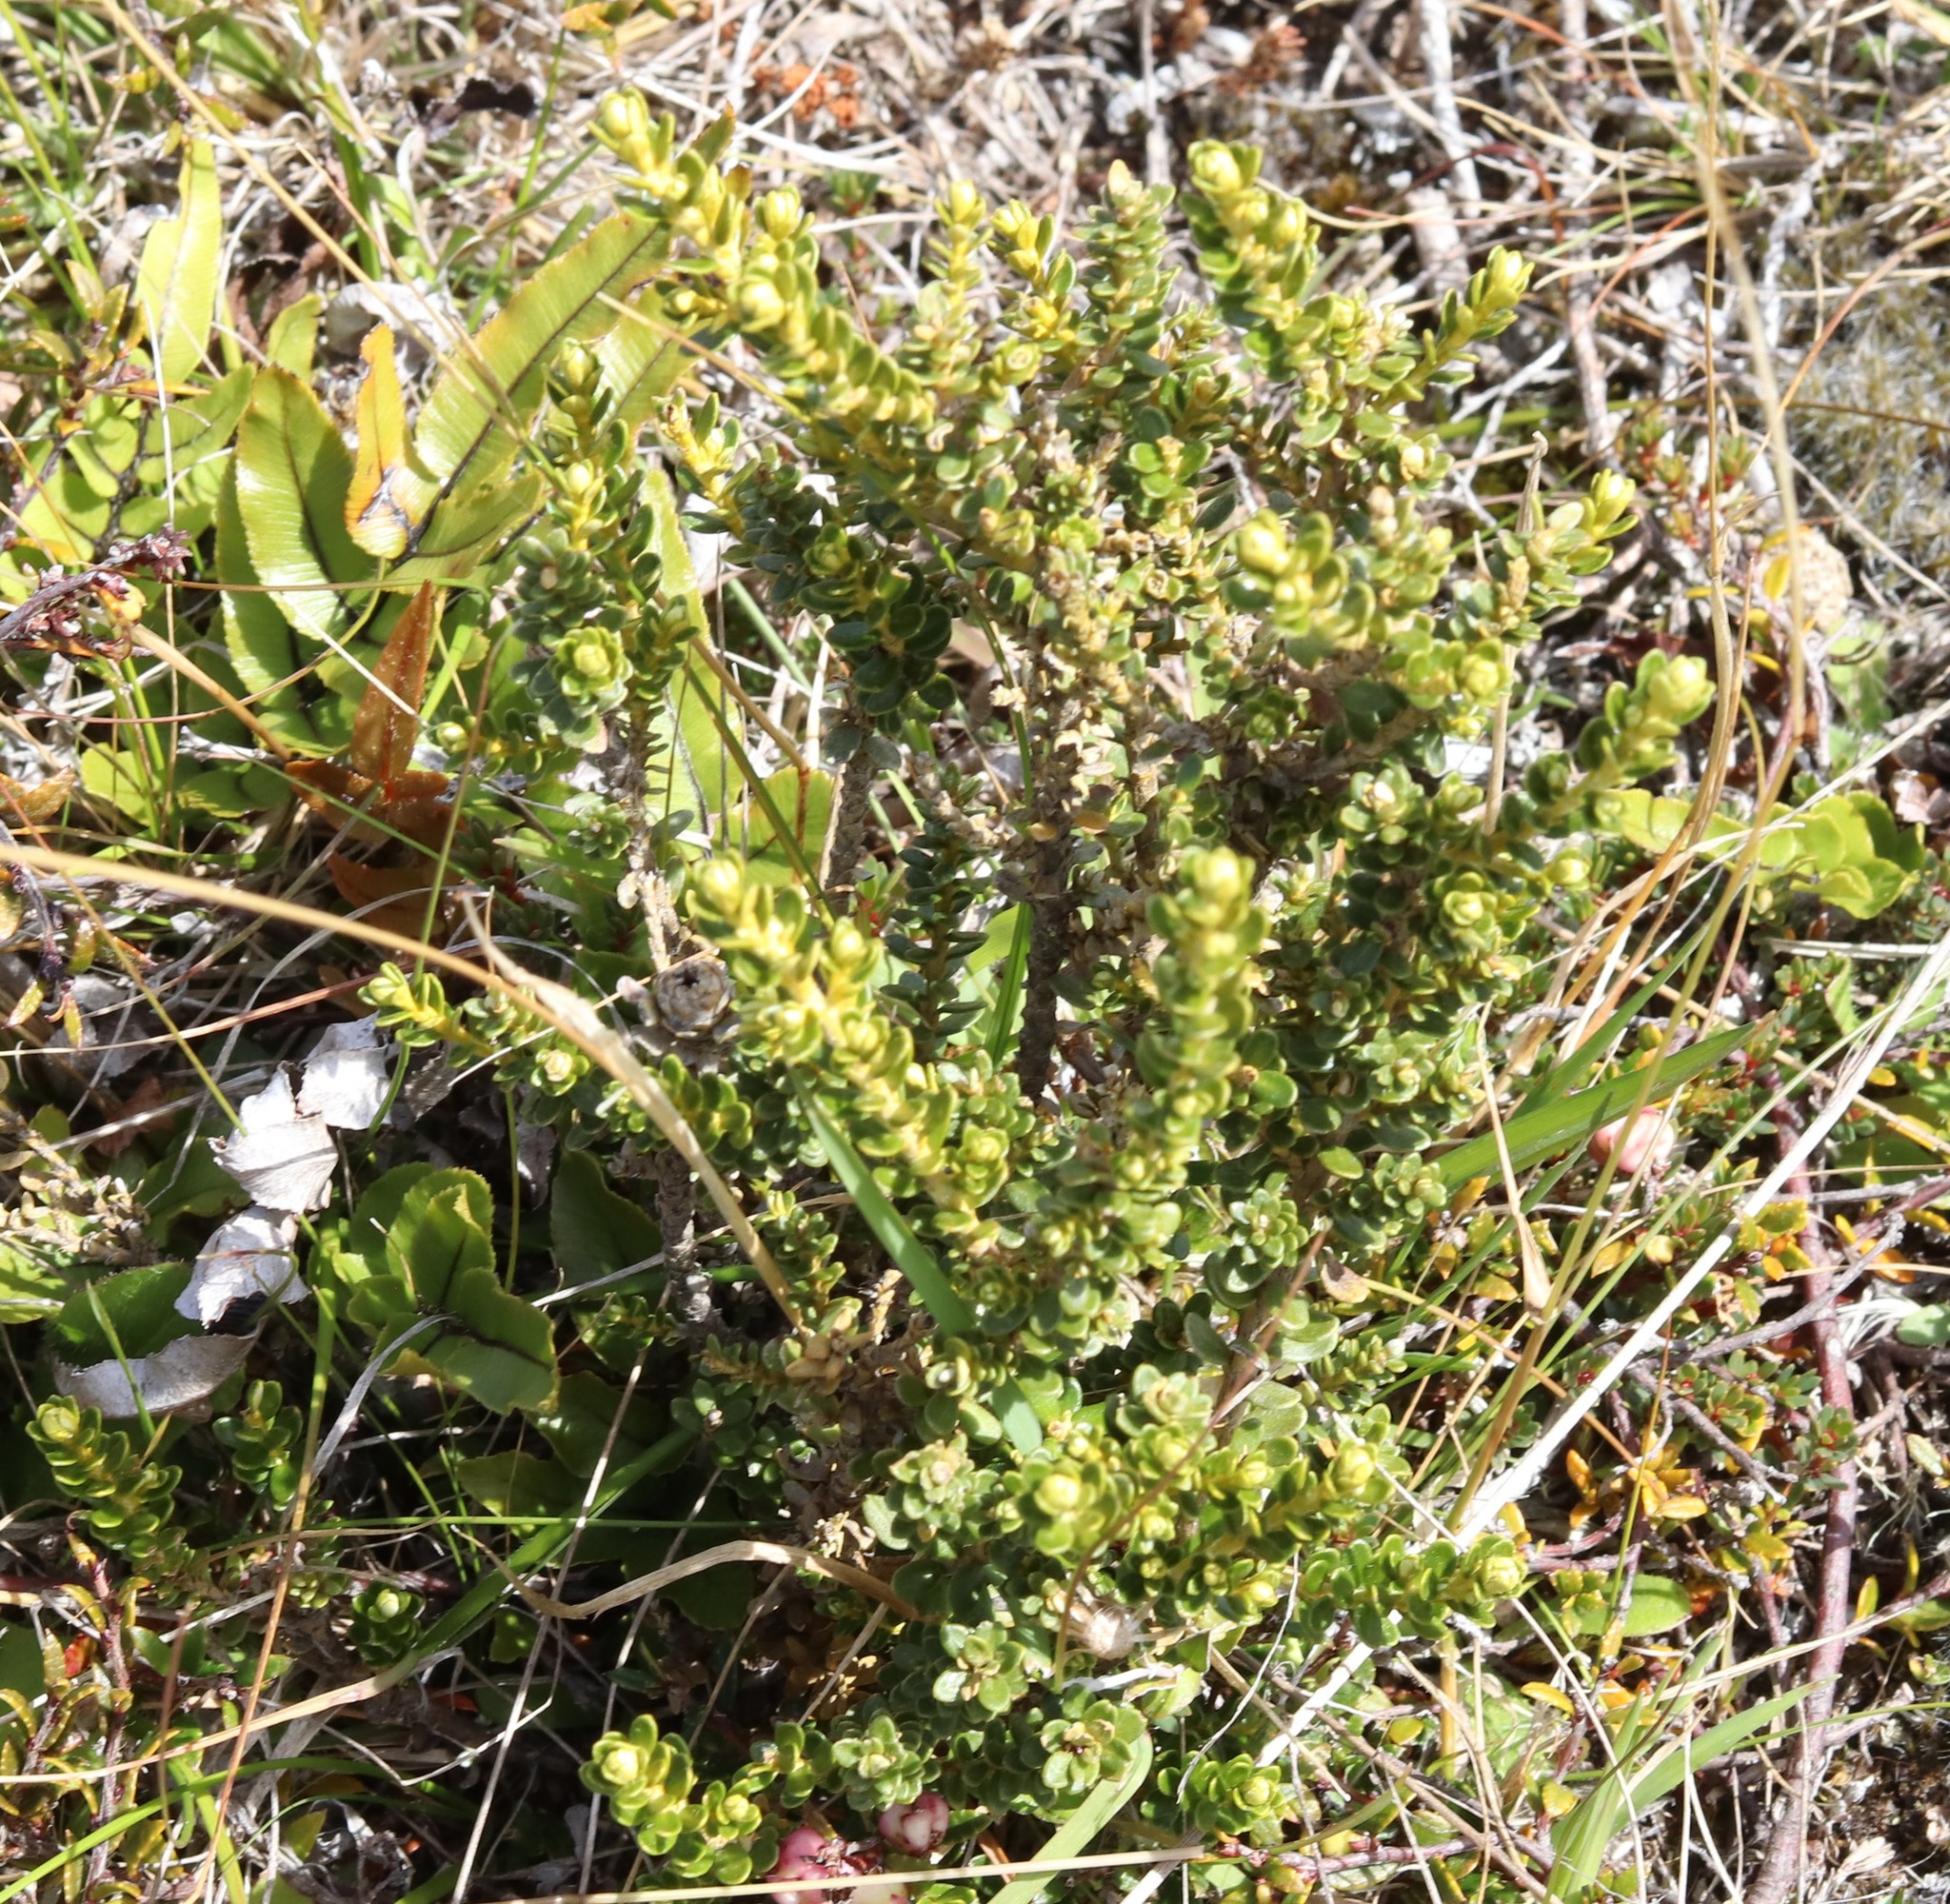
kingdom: Plantae
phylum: Tracheophyta
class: Magnoliopsida
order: Asterales
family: Asteraceae
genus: Ozothamnus
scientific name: Ozothamnus leptophyllus
